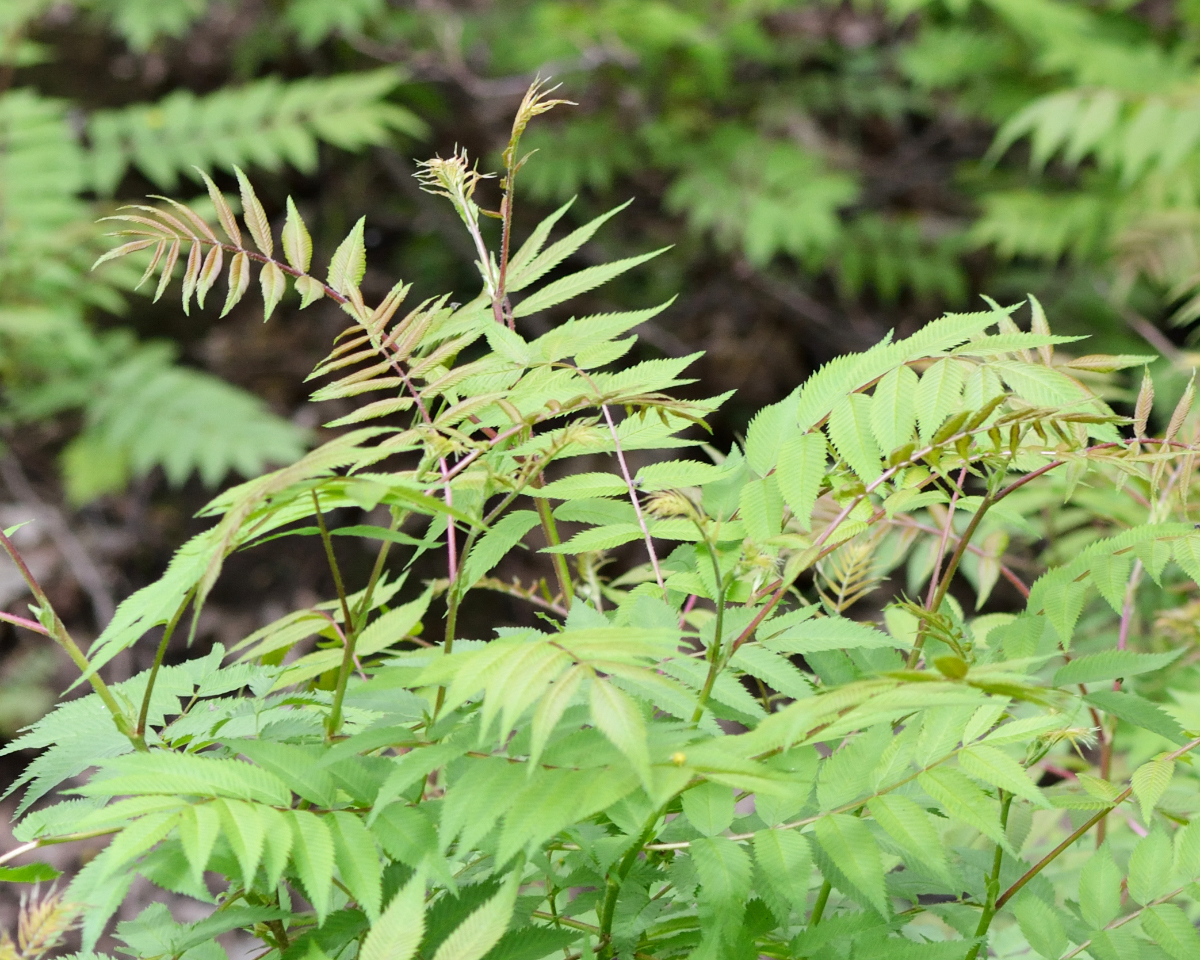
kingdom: Plantae
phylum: Tracheophyta
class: Magnoliopsida
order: Rosales
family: Rosaceae
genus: Sorbaria
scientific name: Sorbaria sorbifolia
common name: False spiraea
